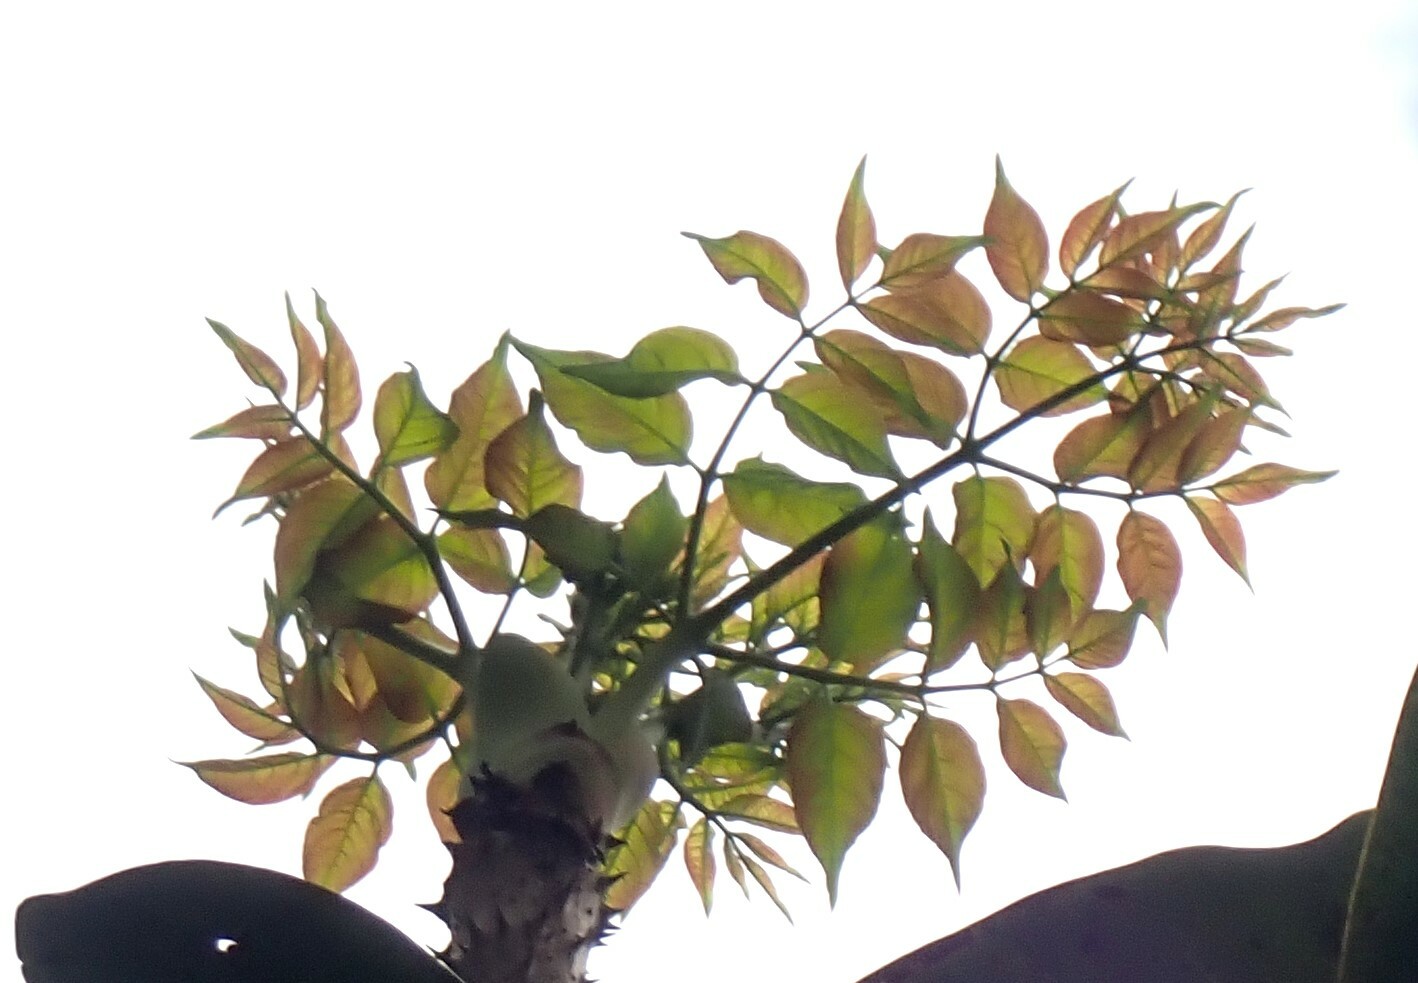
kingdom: Plantae
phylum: Tracheophyta
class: Magnoliopsida
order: Apiales
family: Araliaceae
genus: Aralia
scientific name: Aralia spinosa
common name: Hercules'-club
